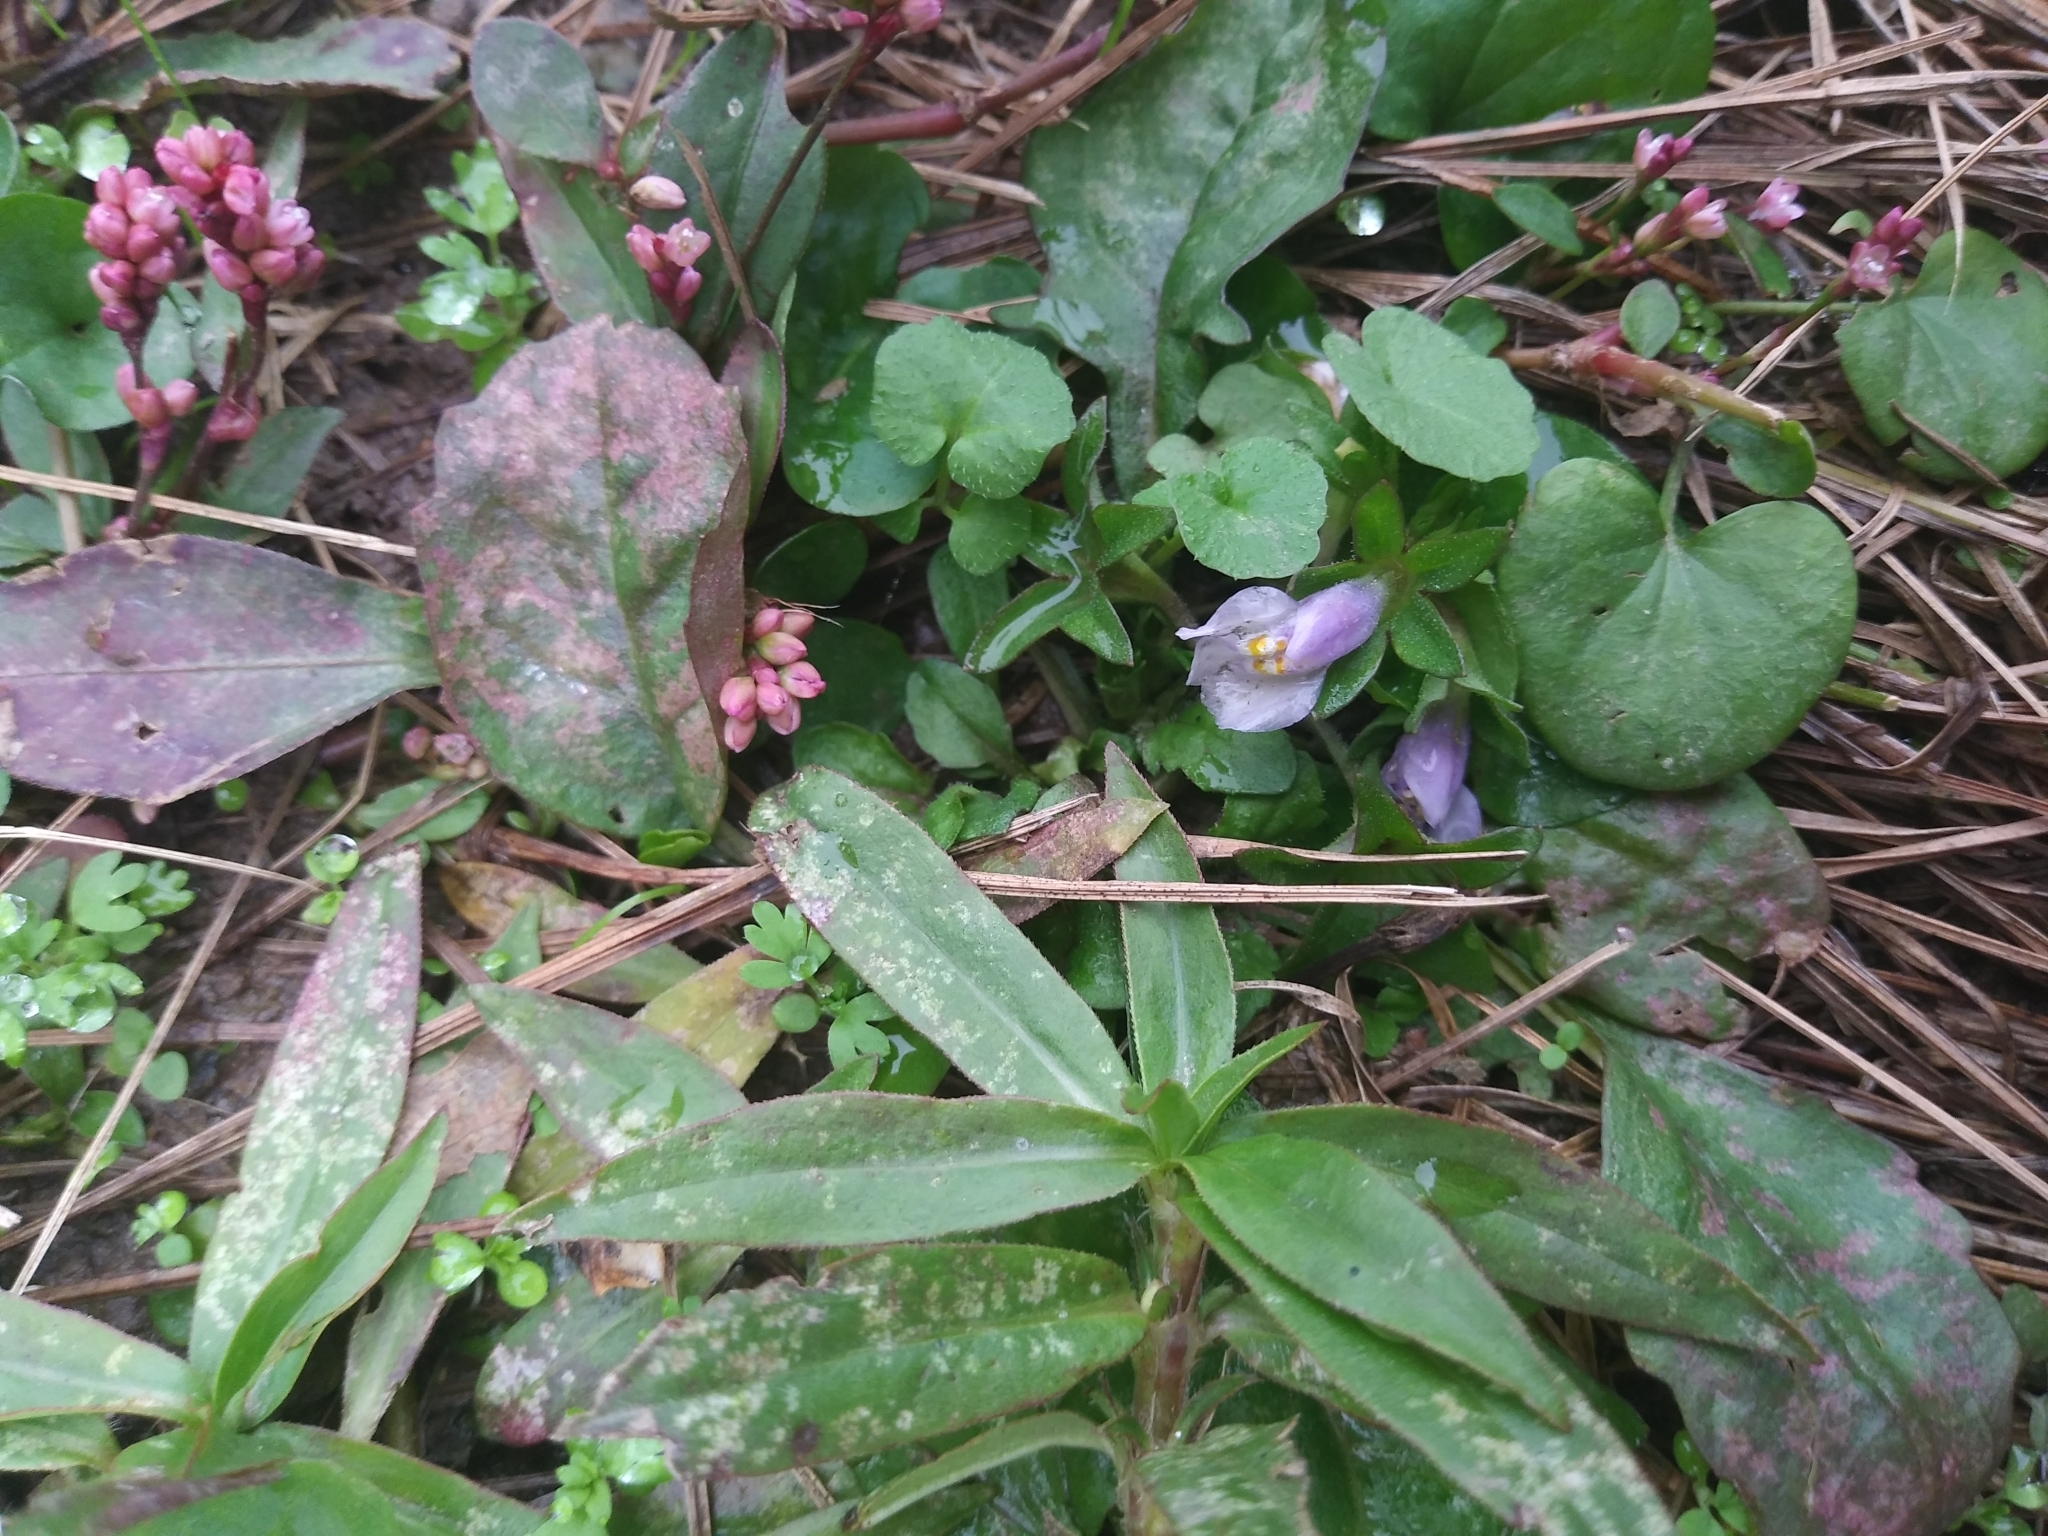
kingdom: Plantae
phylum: Tracheophyta
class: Magnoliopsida
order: Lamiales
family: Mazaceae
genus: Mazus
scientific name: Mazus pumilus
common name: Japanese mazus
